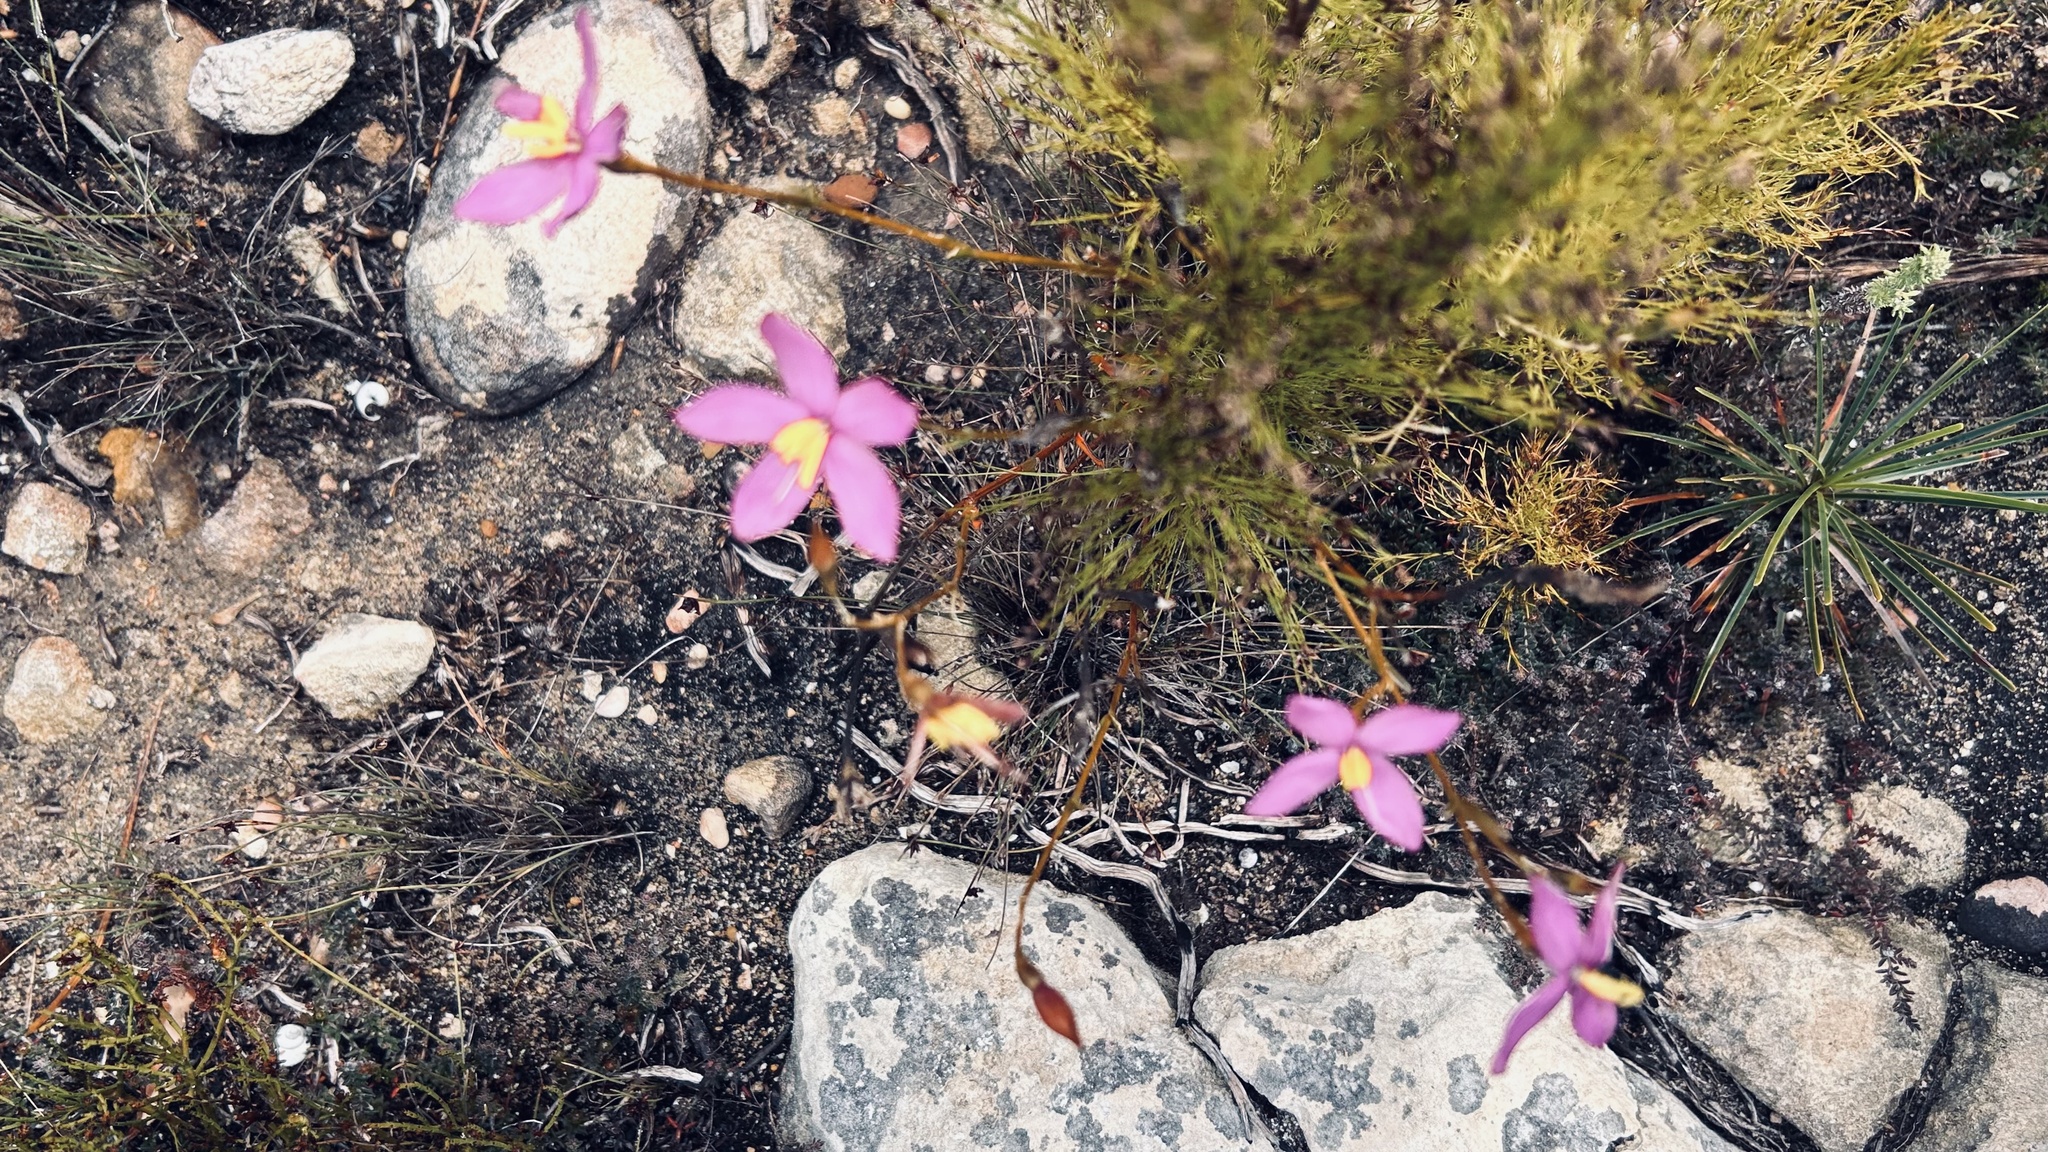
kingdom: Plantae
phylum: Tracheophyta
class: Magnoliopsida
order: Gentianales
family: Gentianaceae
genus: Chironia
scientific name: Chironia tetragona
